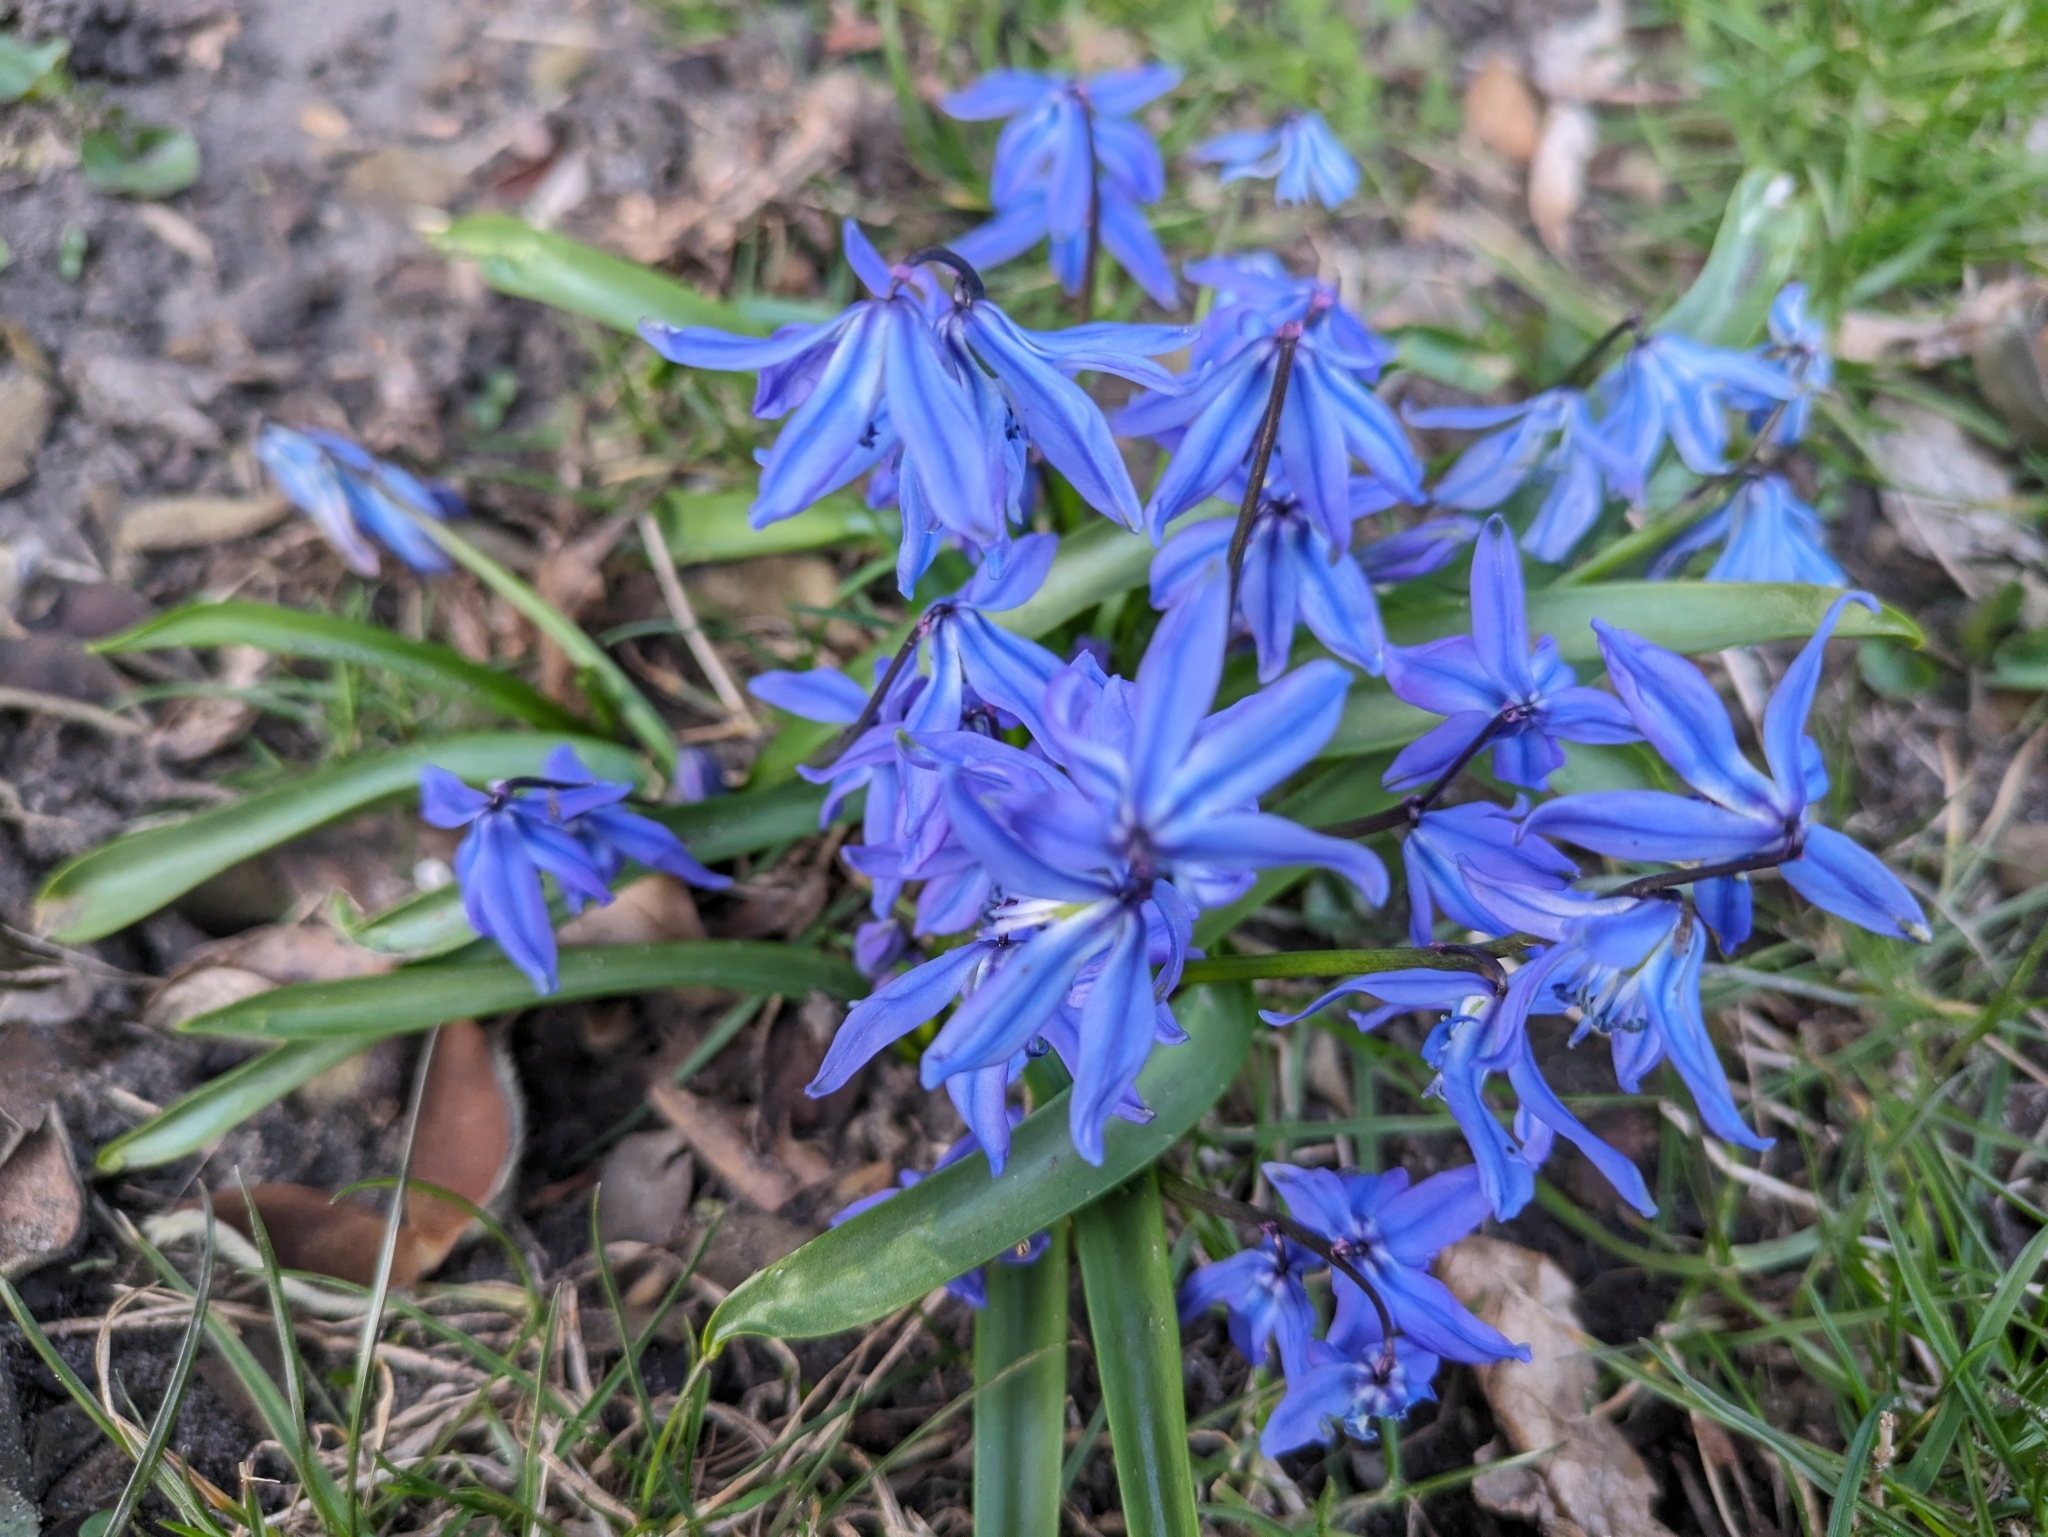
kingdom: Plantae
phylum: Tracheophyta
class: Liliopsida
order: Asparagales
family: Asparagaceae
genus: Scilla
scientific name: Scilla siberica
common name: Siberian squill
